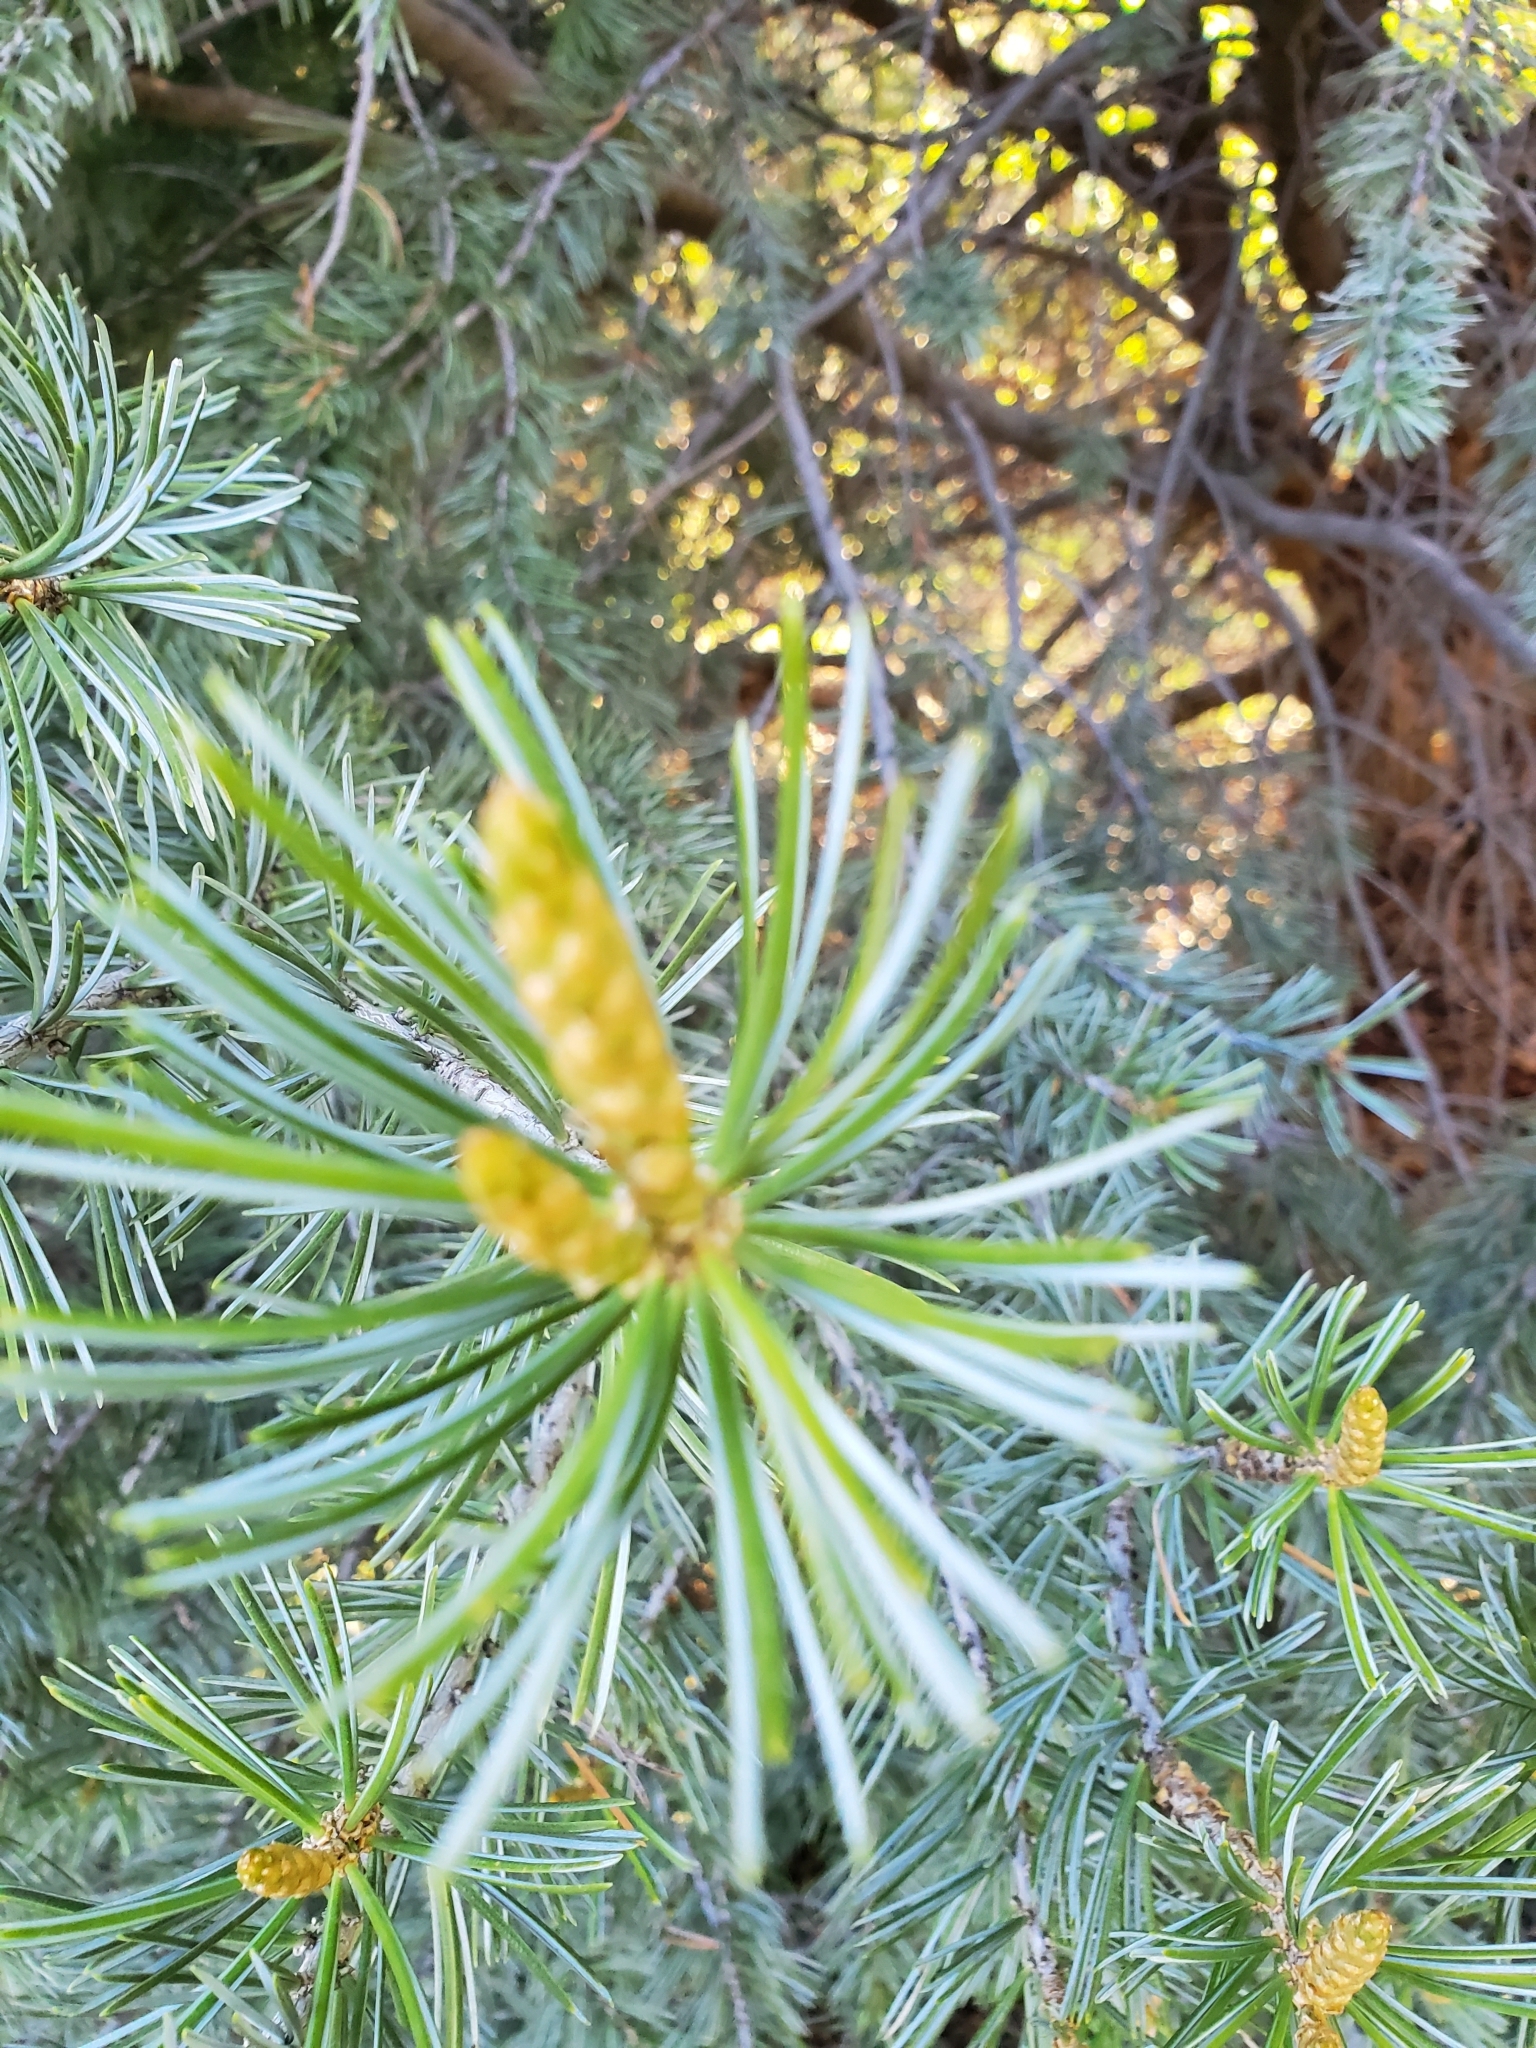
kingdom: Plantae
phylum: Tracheophyta
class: Pinopsida
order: Pinales
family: Pinaceae
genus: Pinus
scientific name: Pinus quadrifolia
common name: Parry pinyon
